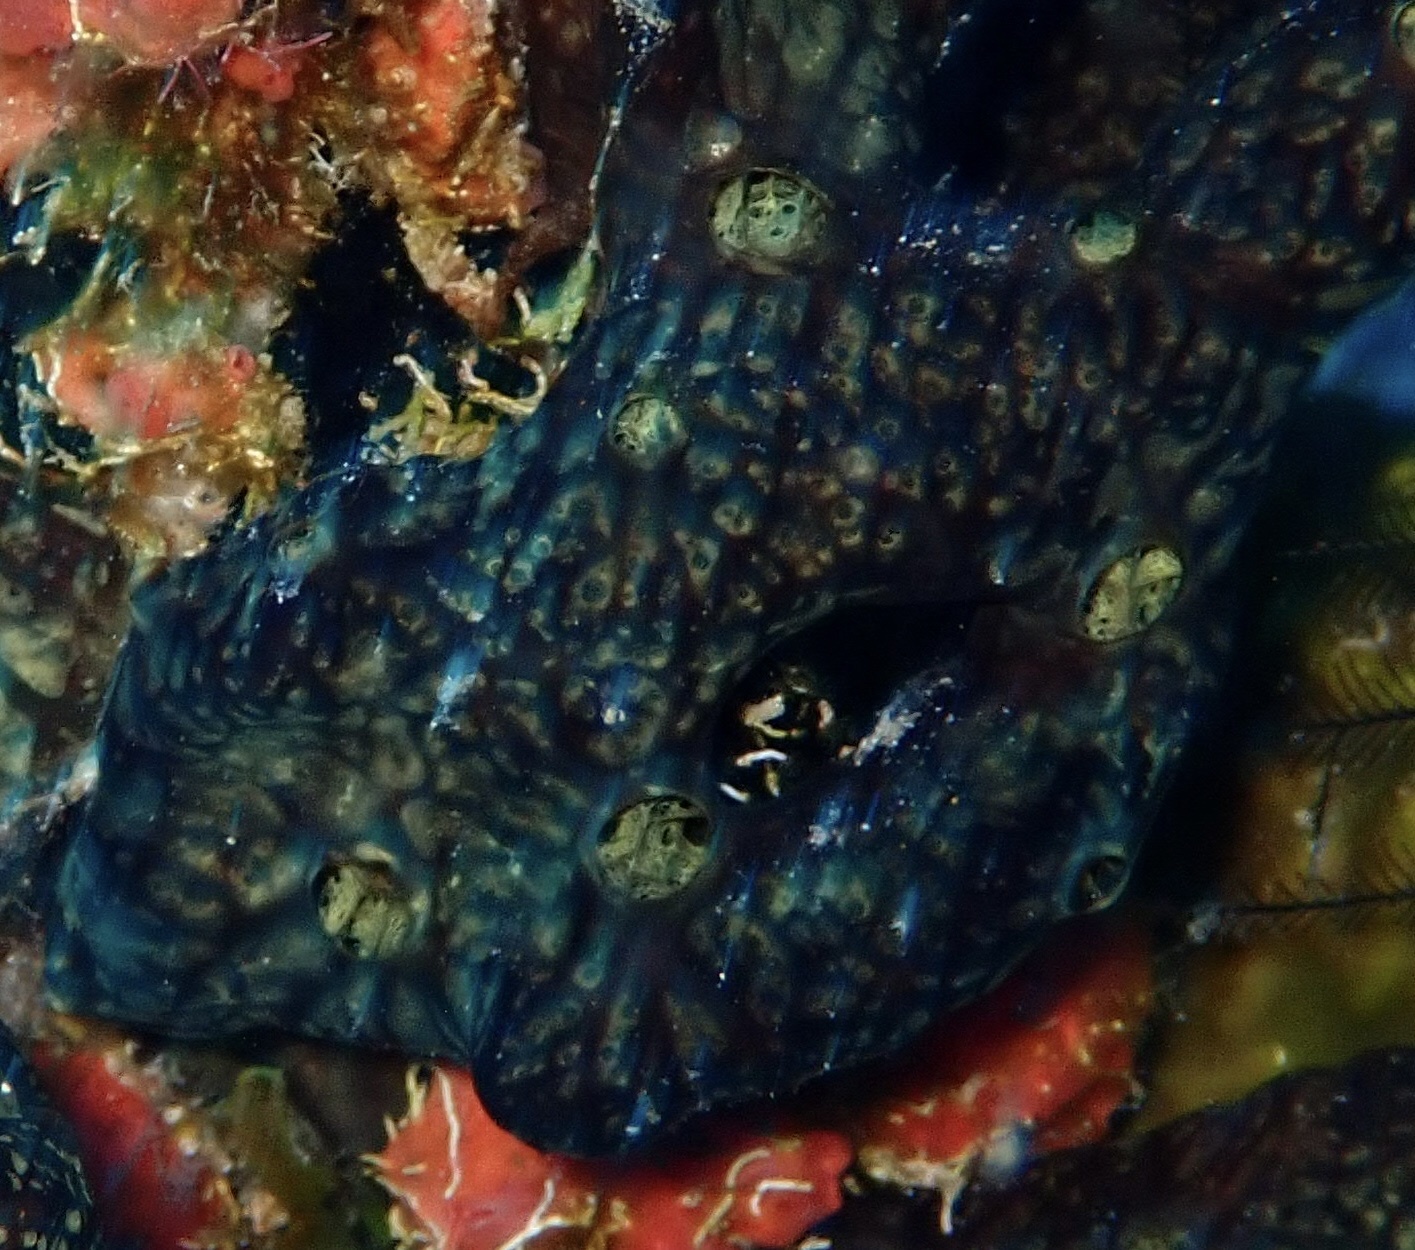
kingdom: Animalia
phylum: Porifera
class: Demospongiae
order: Poecilosclerida
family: Iotrochotidae
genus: Iotrochota
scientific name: Iotrochota birotulata
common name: Purple bleeding sponge
